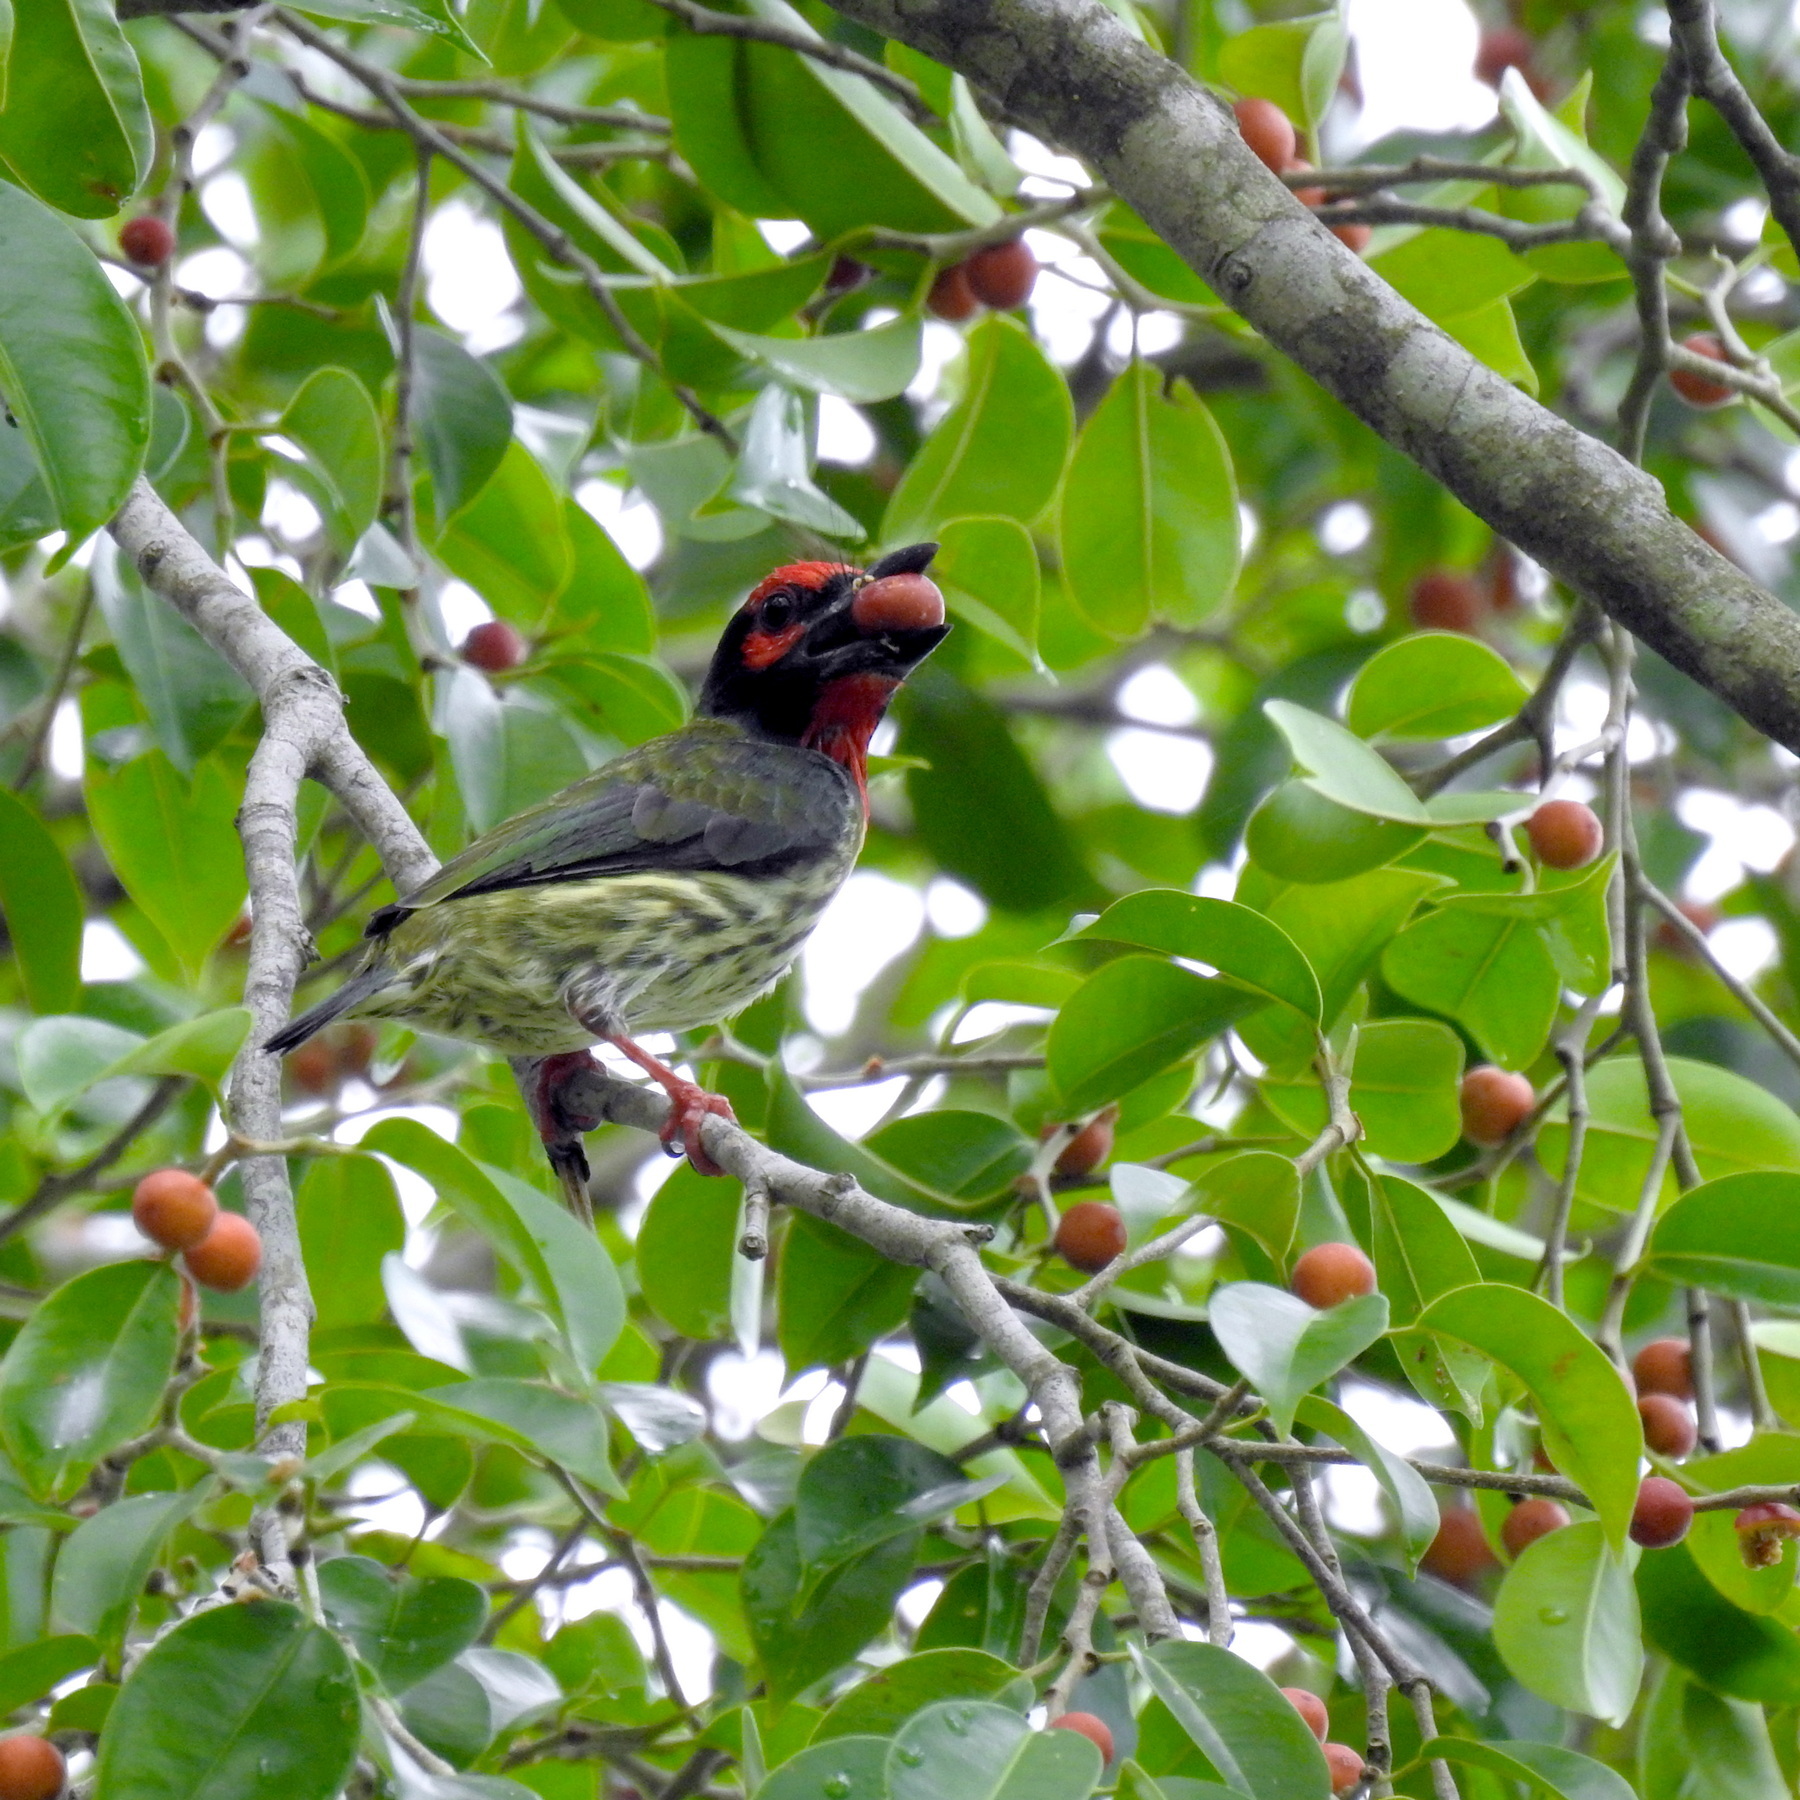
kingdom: Animalia
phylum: Chordata
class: Aves
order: Piciformes
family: Megalaimidae
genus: Psilopogon
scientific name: Psilopogon haemacephalus
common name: Coppersmith barbet
